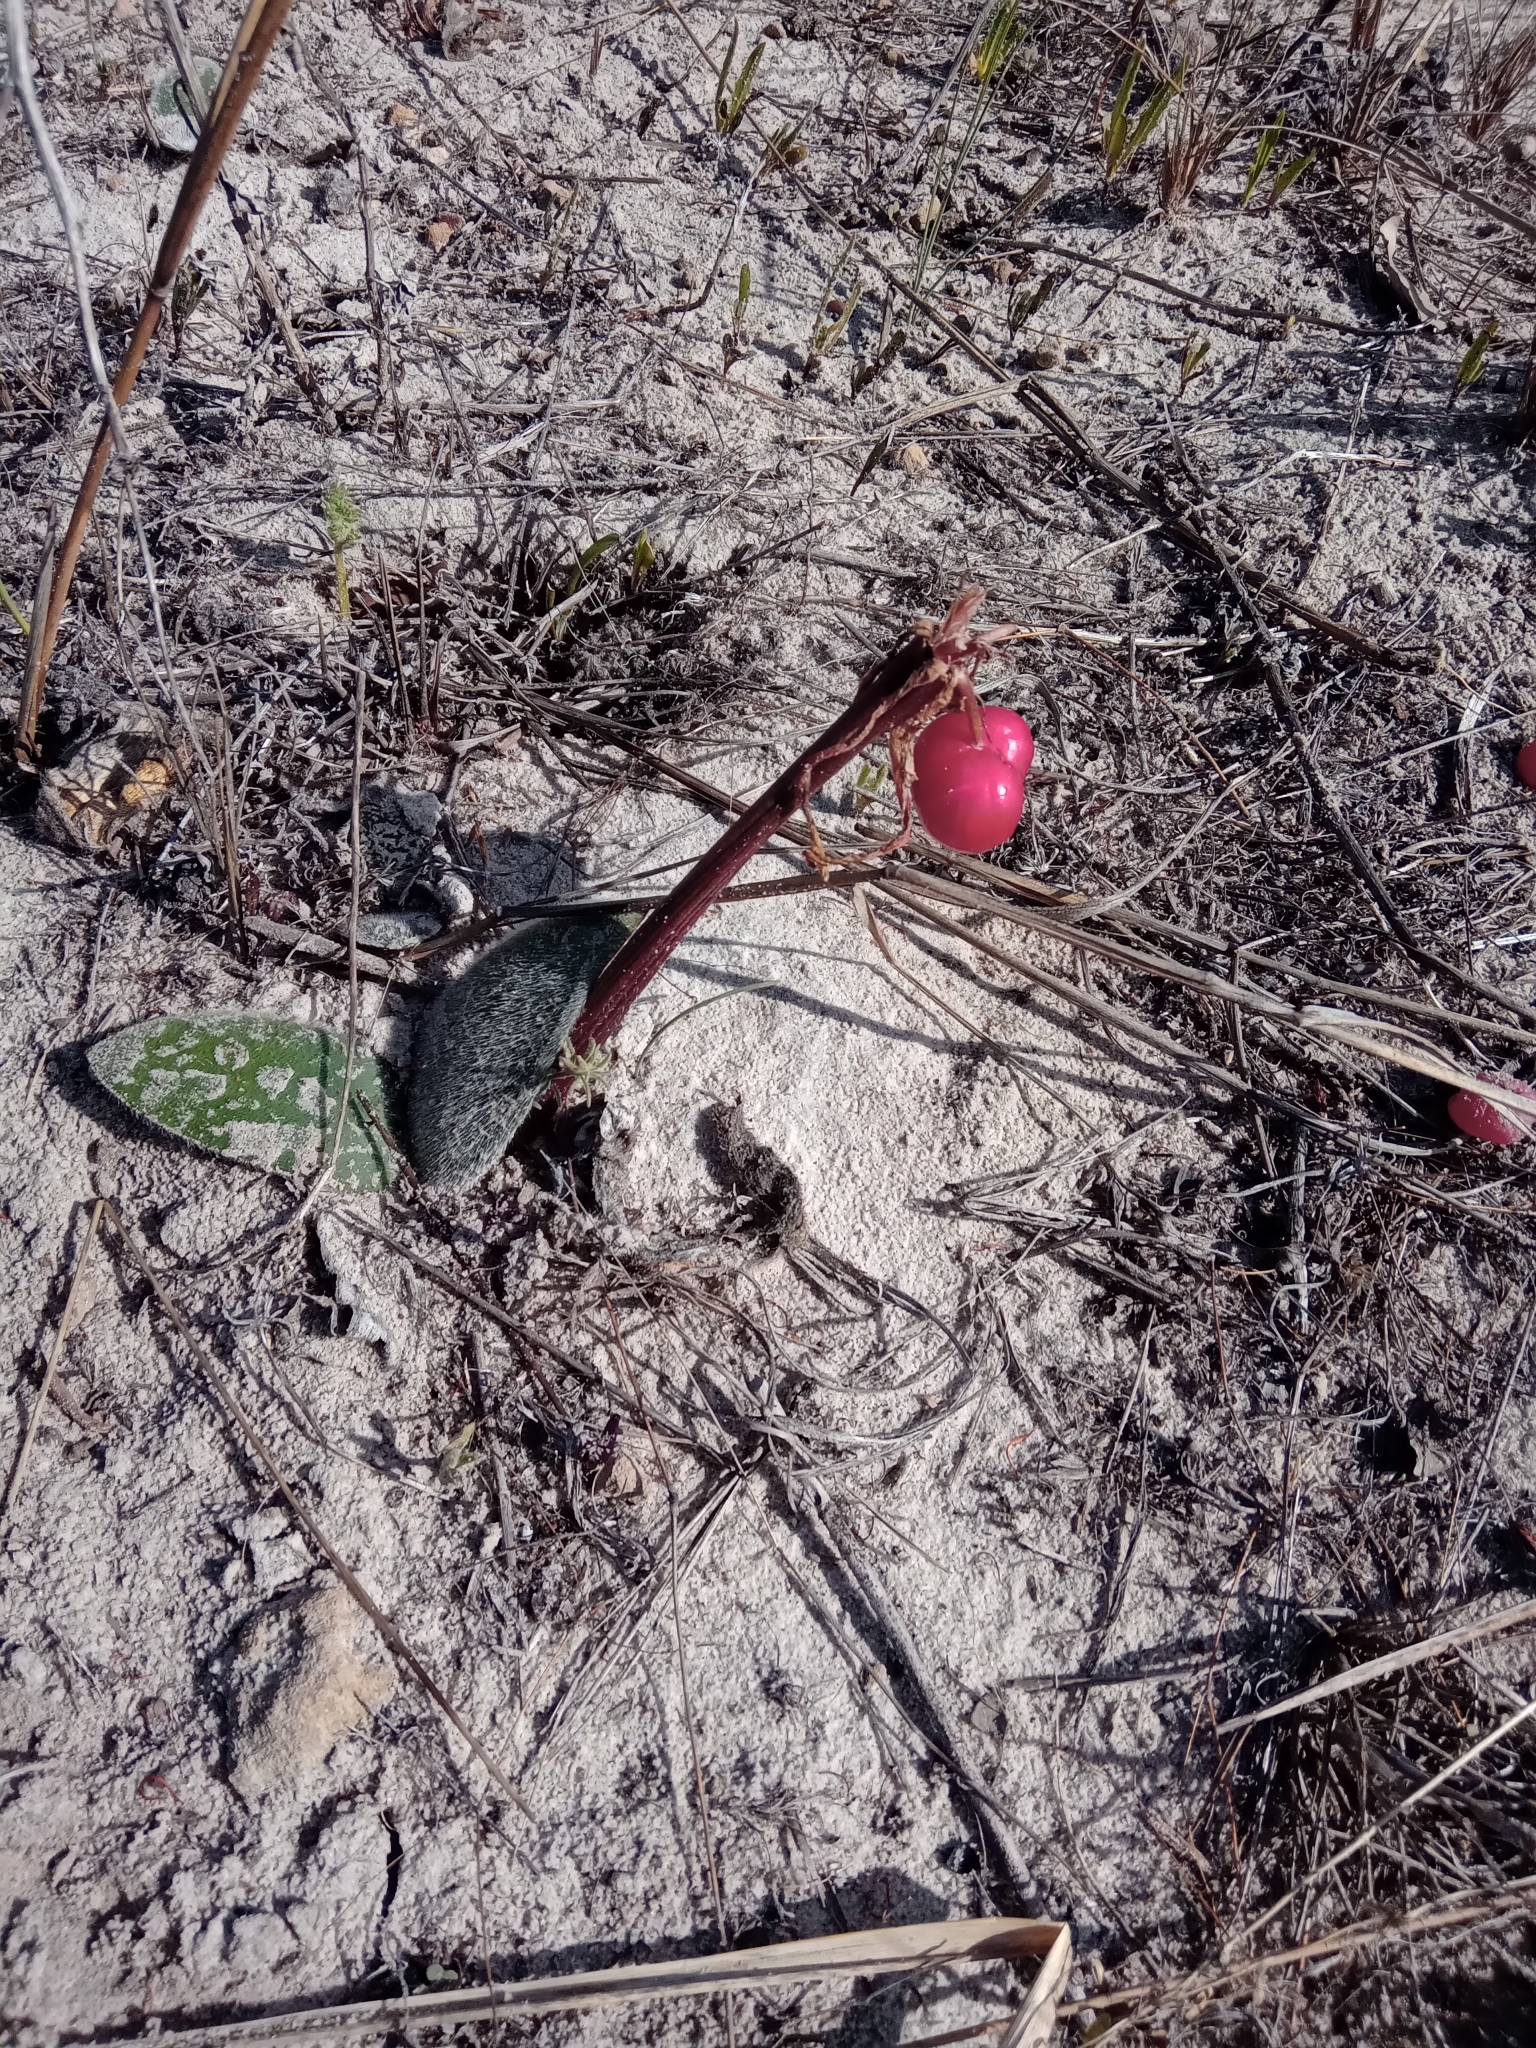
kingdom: Plantae
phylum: Tracheophyta
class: Liliopsida
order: Asparagales
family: Amaryllidaceae
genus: Haemanthus
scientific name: Haemanthus pubescens
